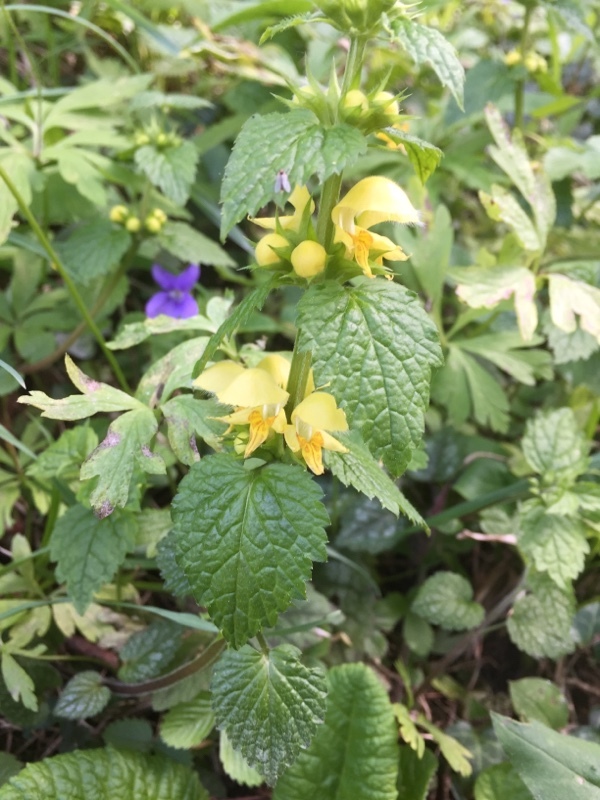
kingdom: Plantae
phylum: Tracheophyta
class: Magnoliopsida
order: Lamiales
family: Lamiaceae
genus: Lamium
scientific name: Lamium galeobdolon
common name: Yellow archangel
